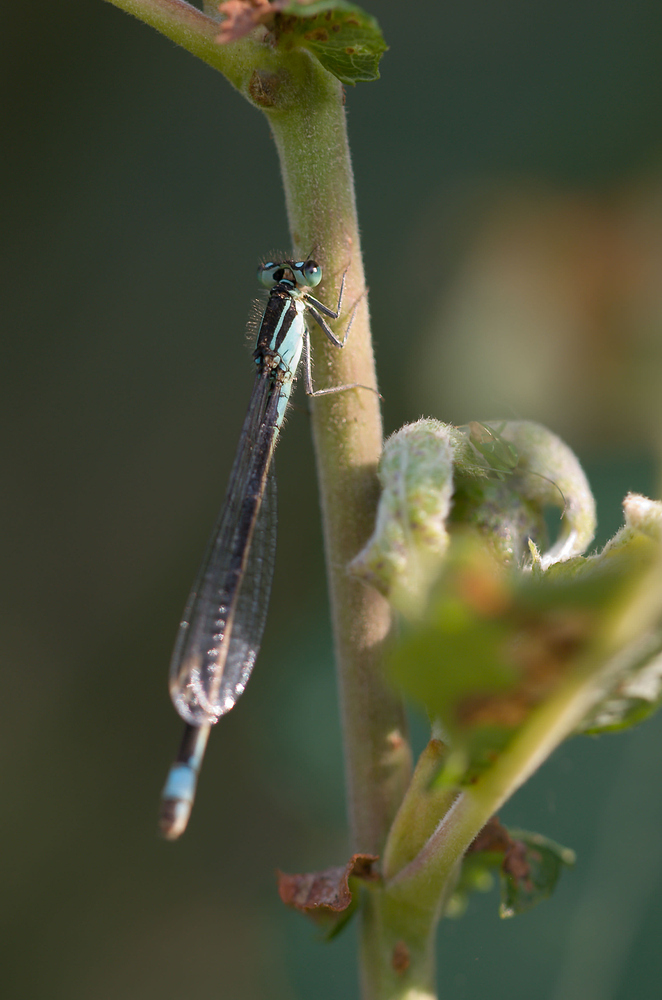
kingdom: Animalia
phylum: Arthropoda
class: Insecta
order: Odonata
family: Coenagrionidae
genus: Ischnura
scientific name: Ischnura elegans
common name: Blue-tailed damselfly
